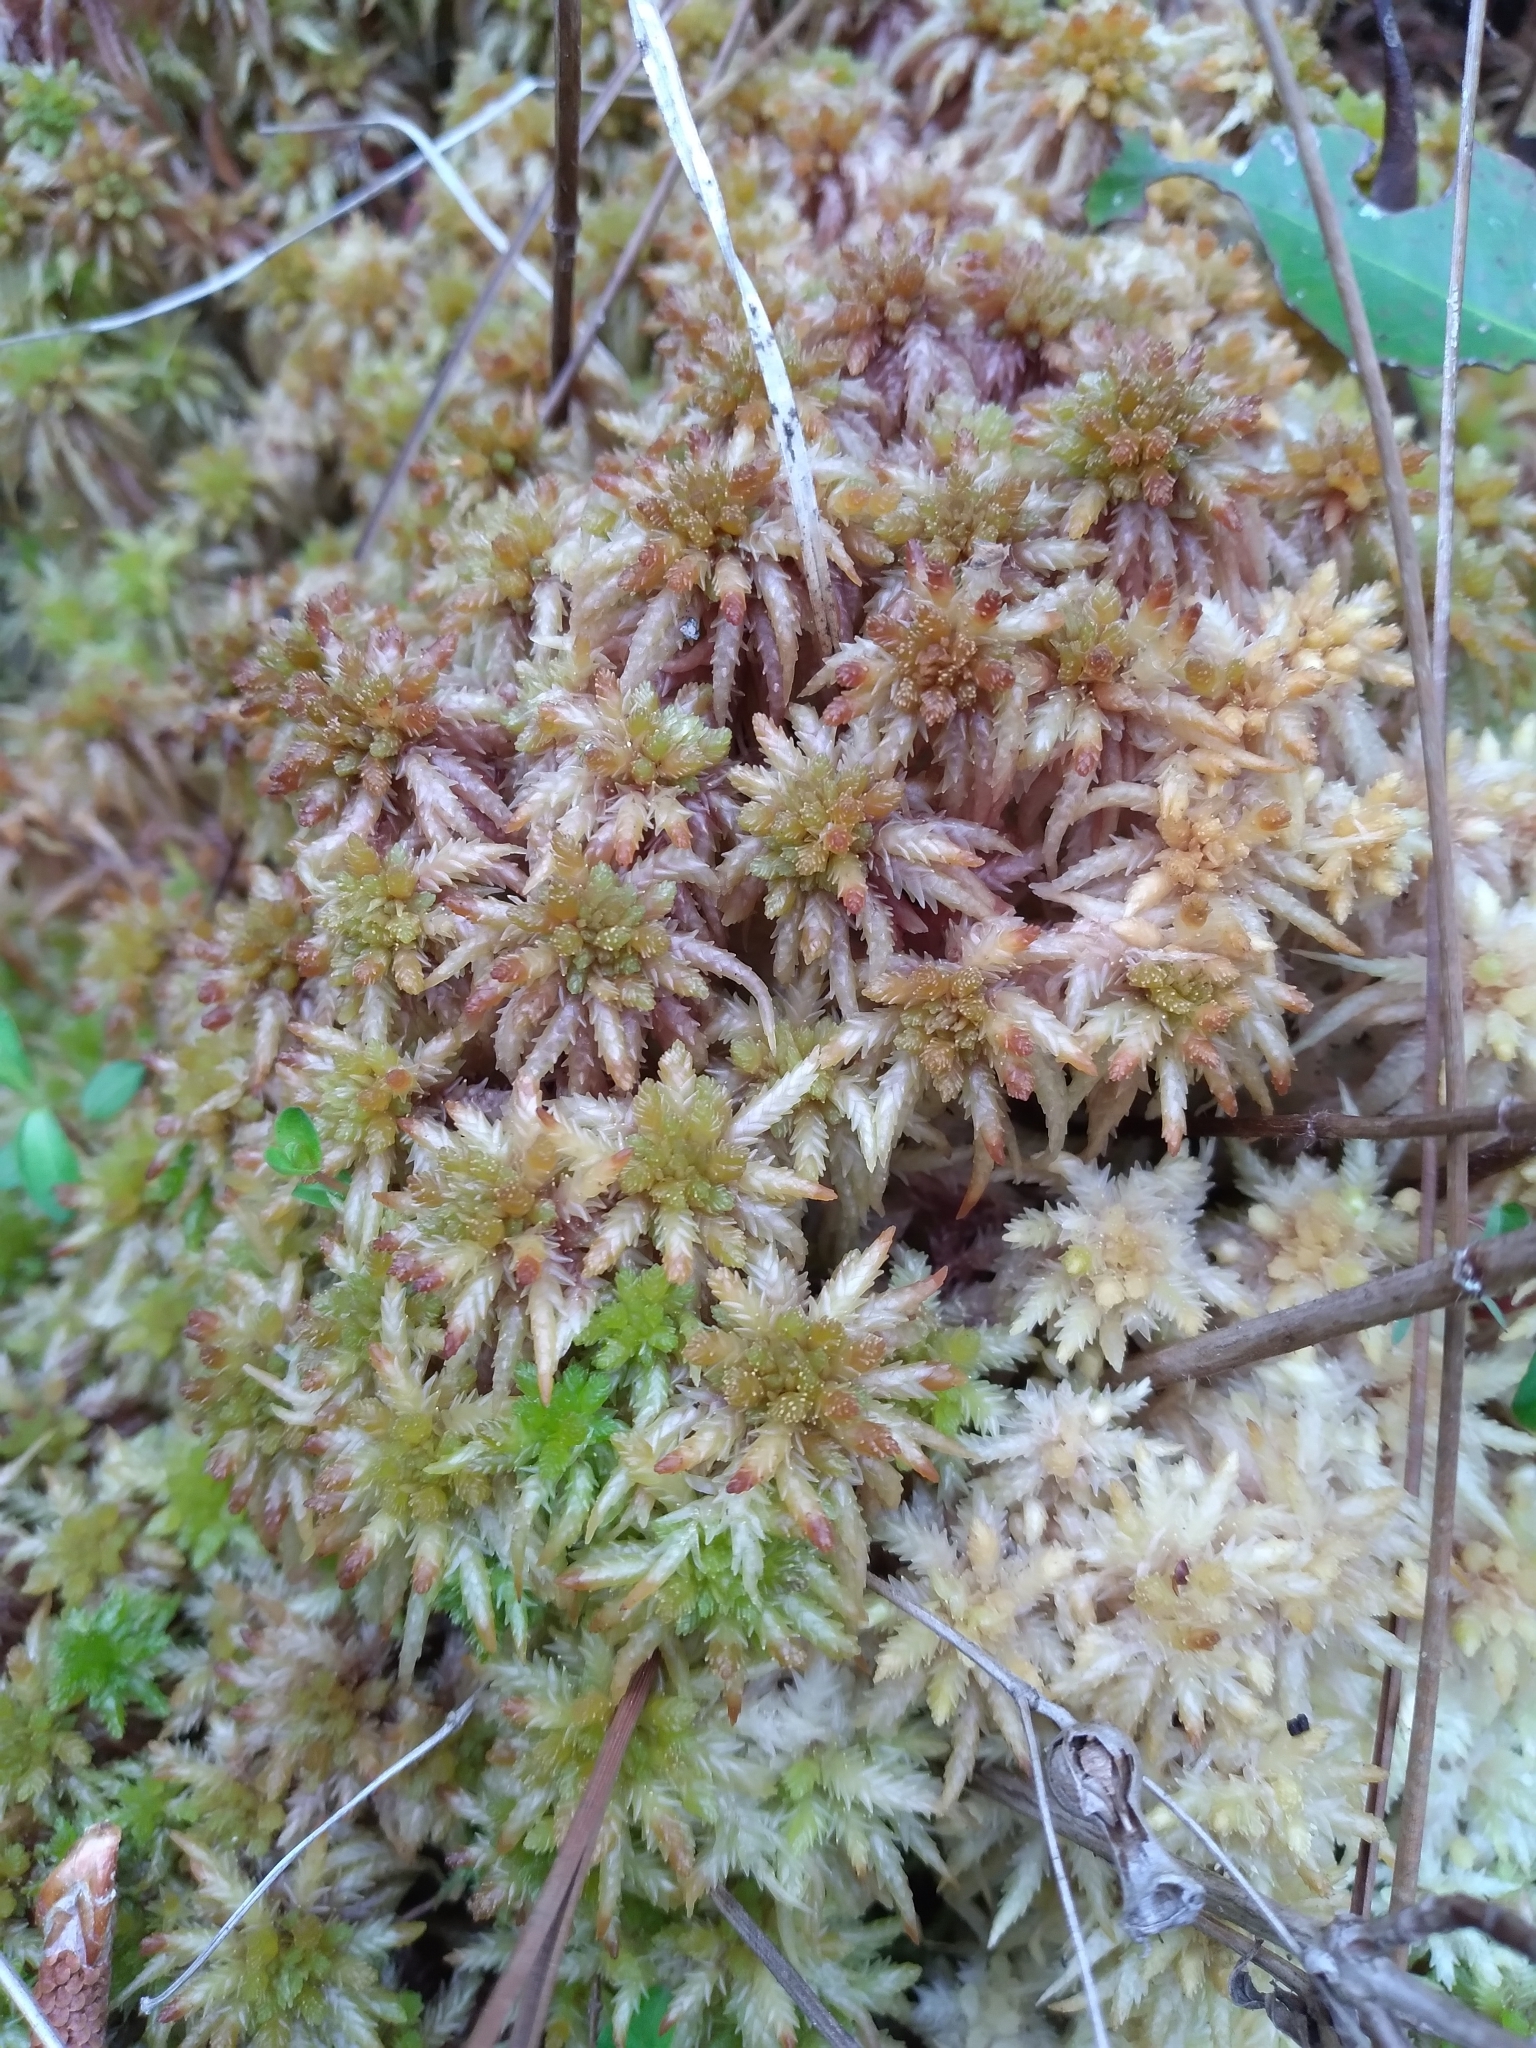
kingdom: Plantae
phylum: Bryophyta
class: Sphagnopsida
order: Sphagnales
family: Sphagnaceae
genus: Sphagnum
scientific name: Sphagnum magellanicum
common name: Magellan's peat moss
